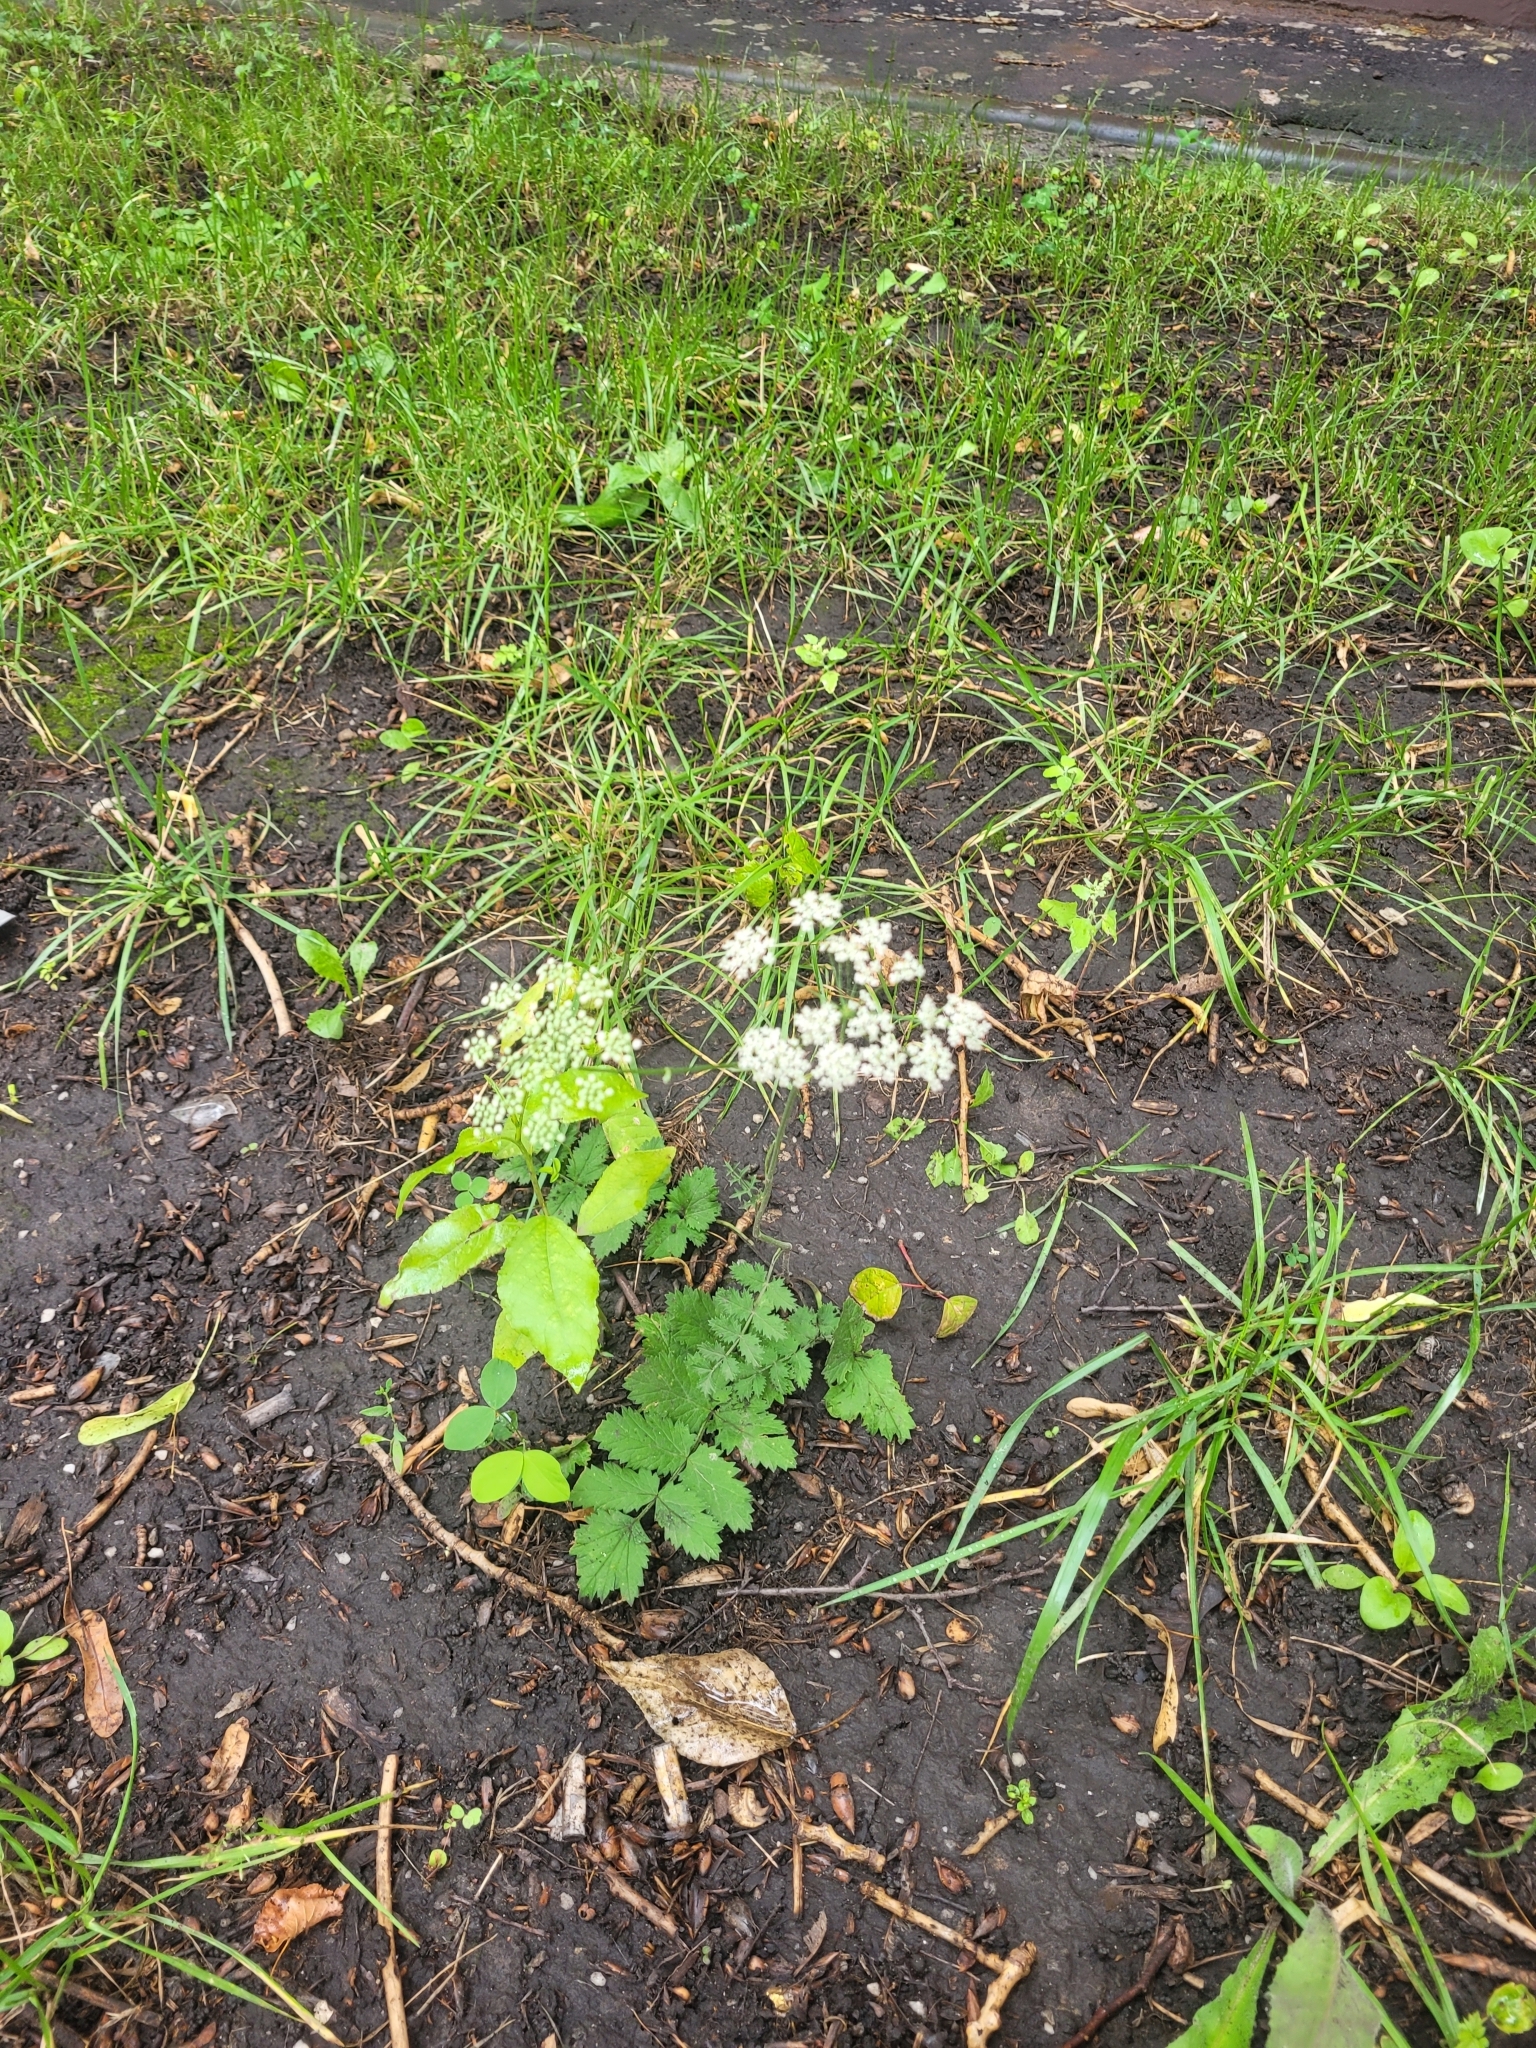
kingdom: Plantae
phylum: Tracheophyta
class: Magnoliopsida
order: Apiales
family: Apiaceae
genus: Pimpinella
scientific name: Pimpinella saxifraga
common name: Burnet-saxifrage
